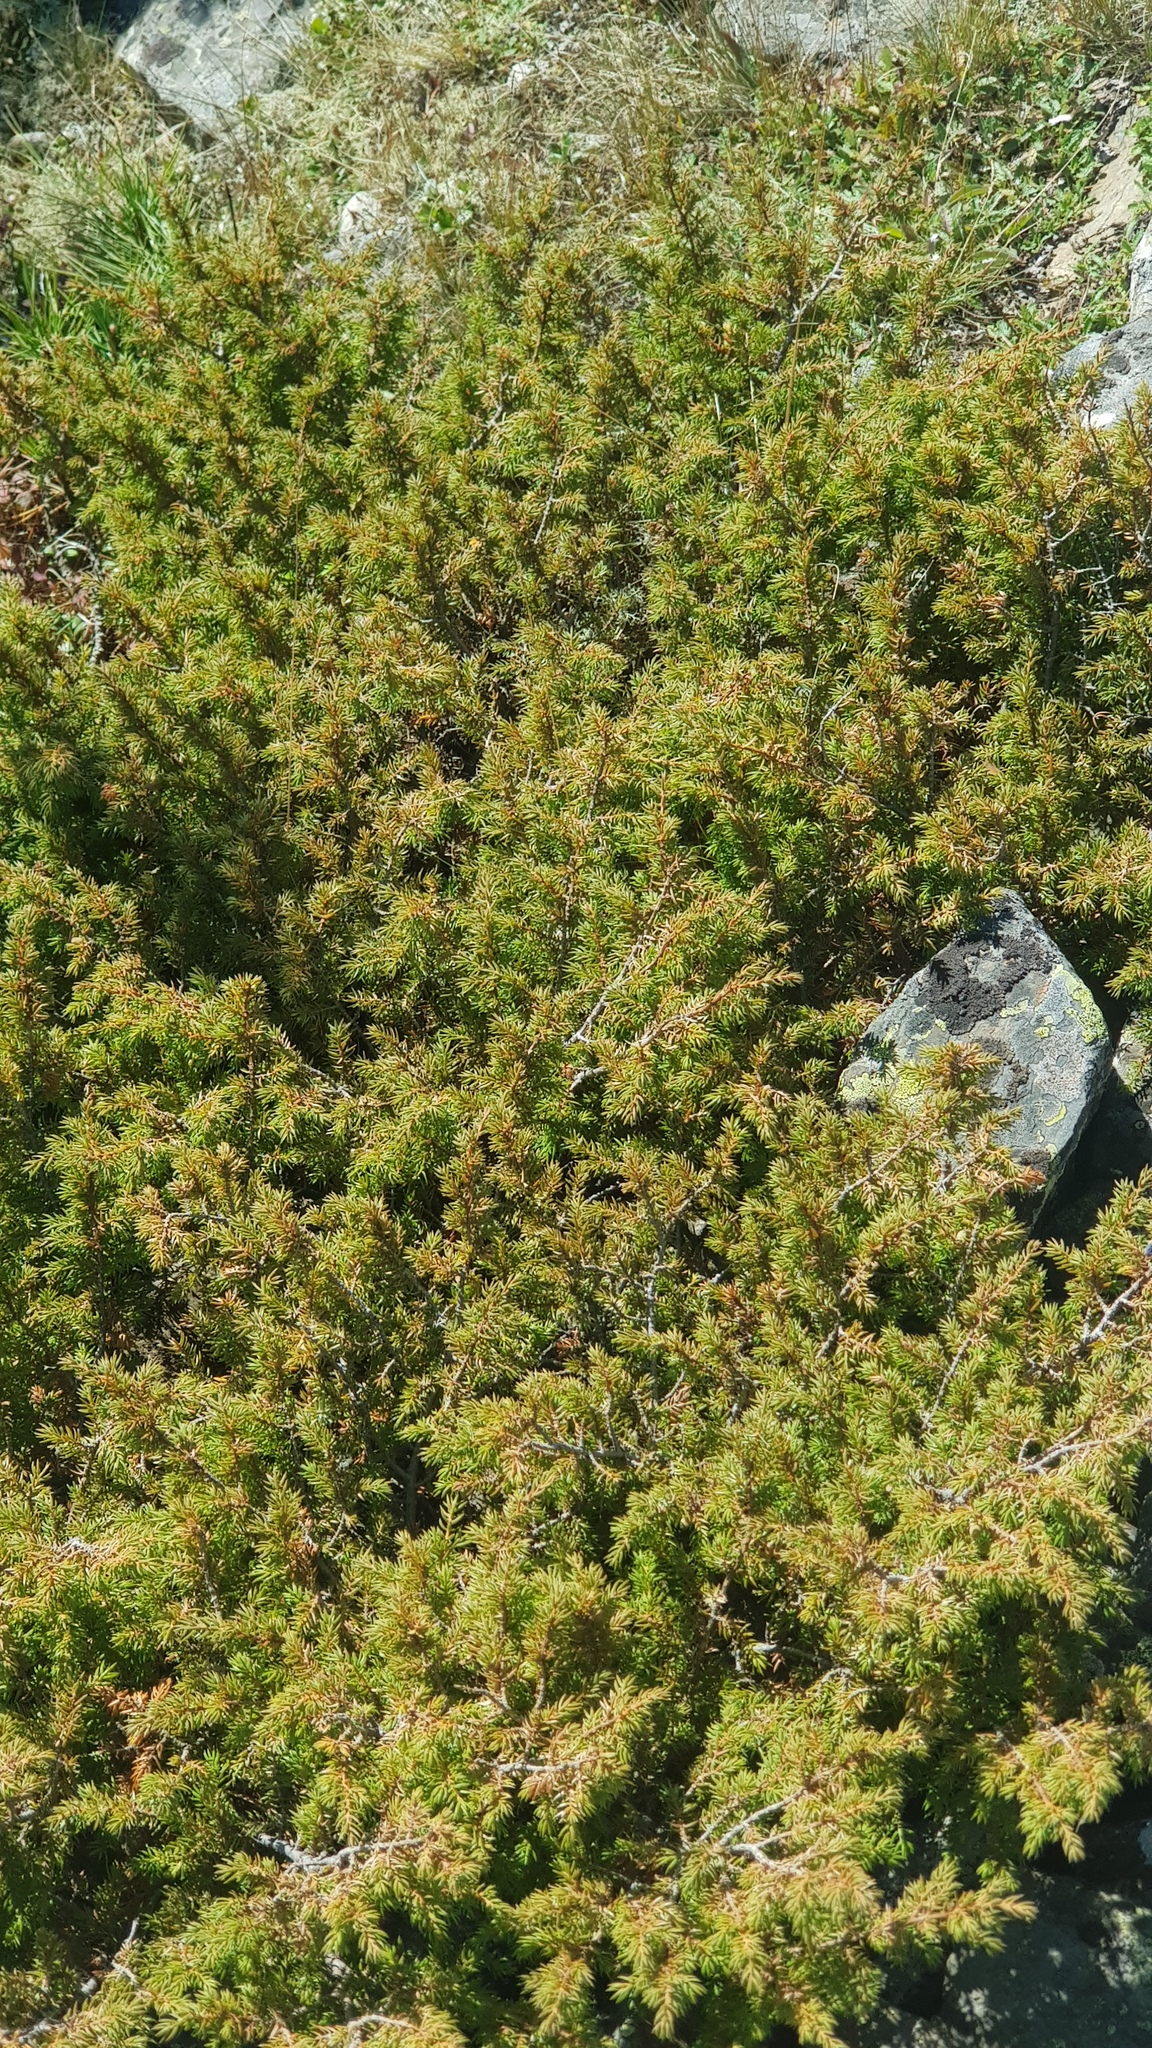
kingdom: Plantae
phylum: Tracheophyta
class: Pinopsida
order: Pinales
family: Cupressaceae
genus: Juniperus
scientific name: Juniperus communis
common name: Common juniper
